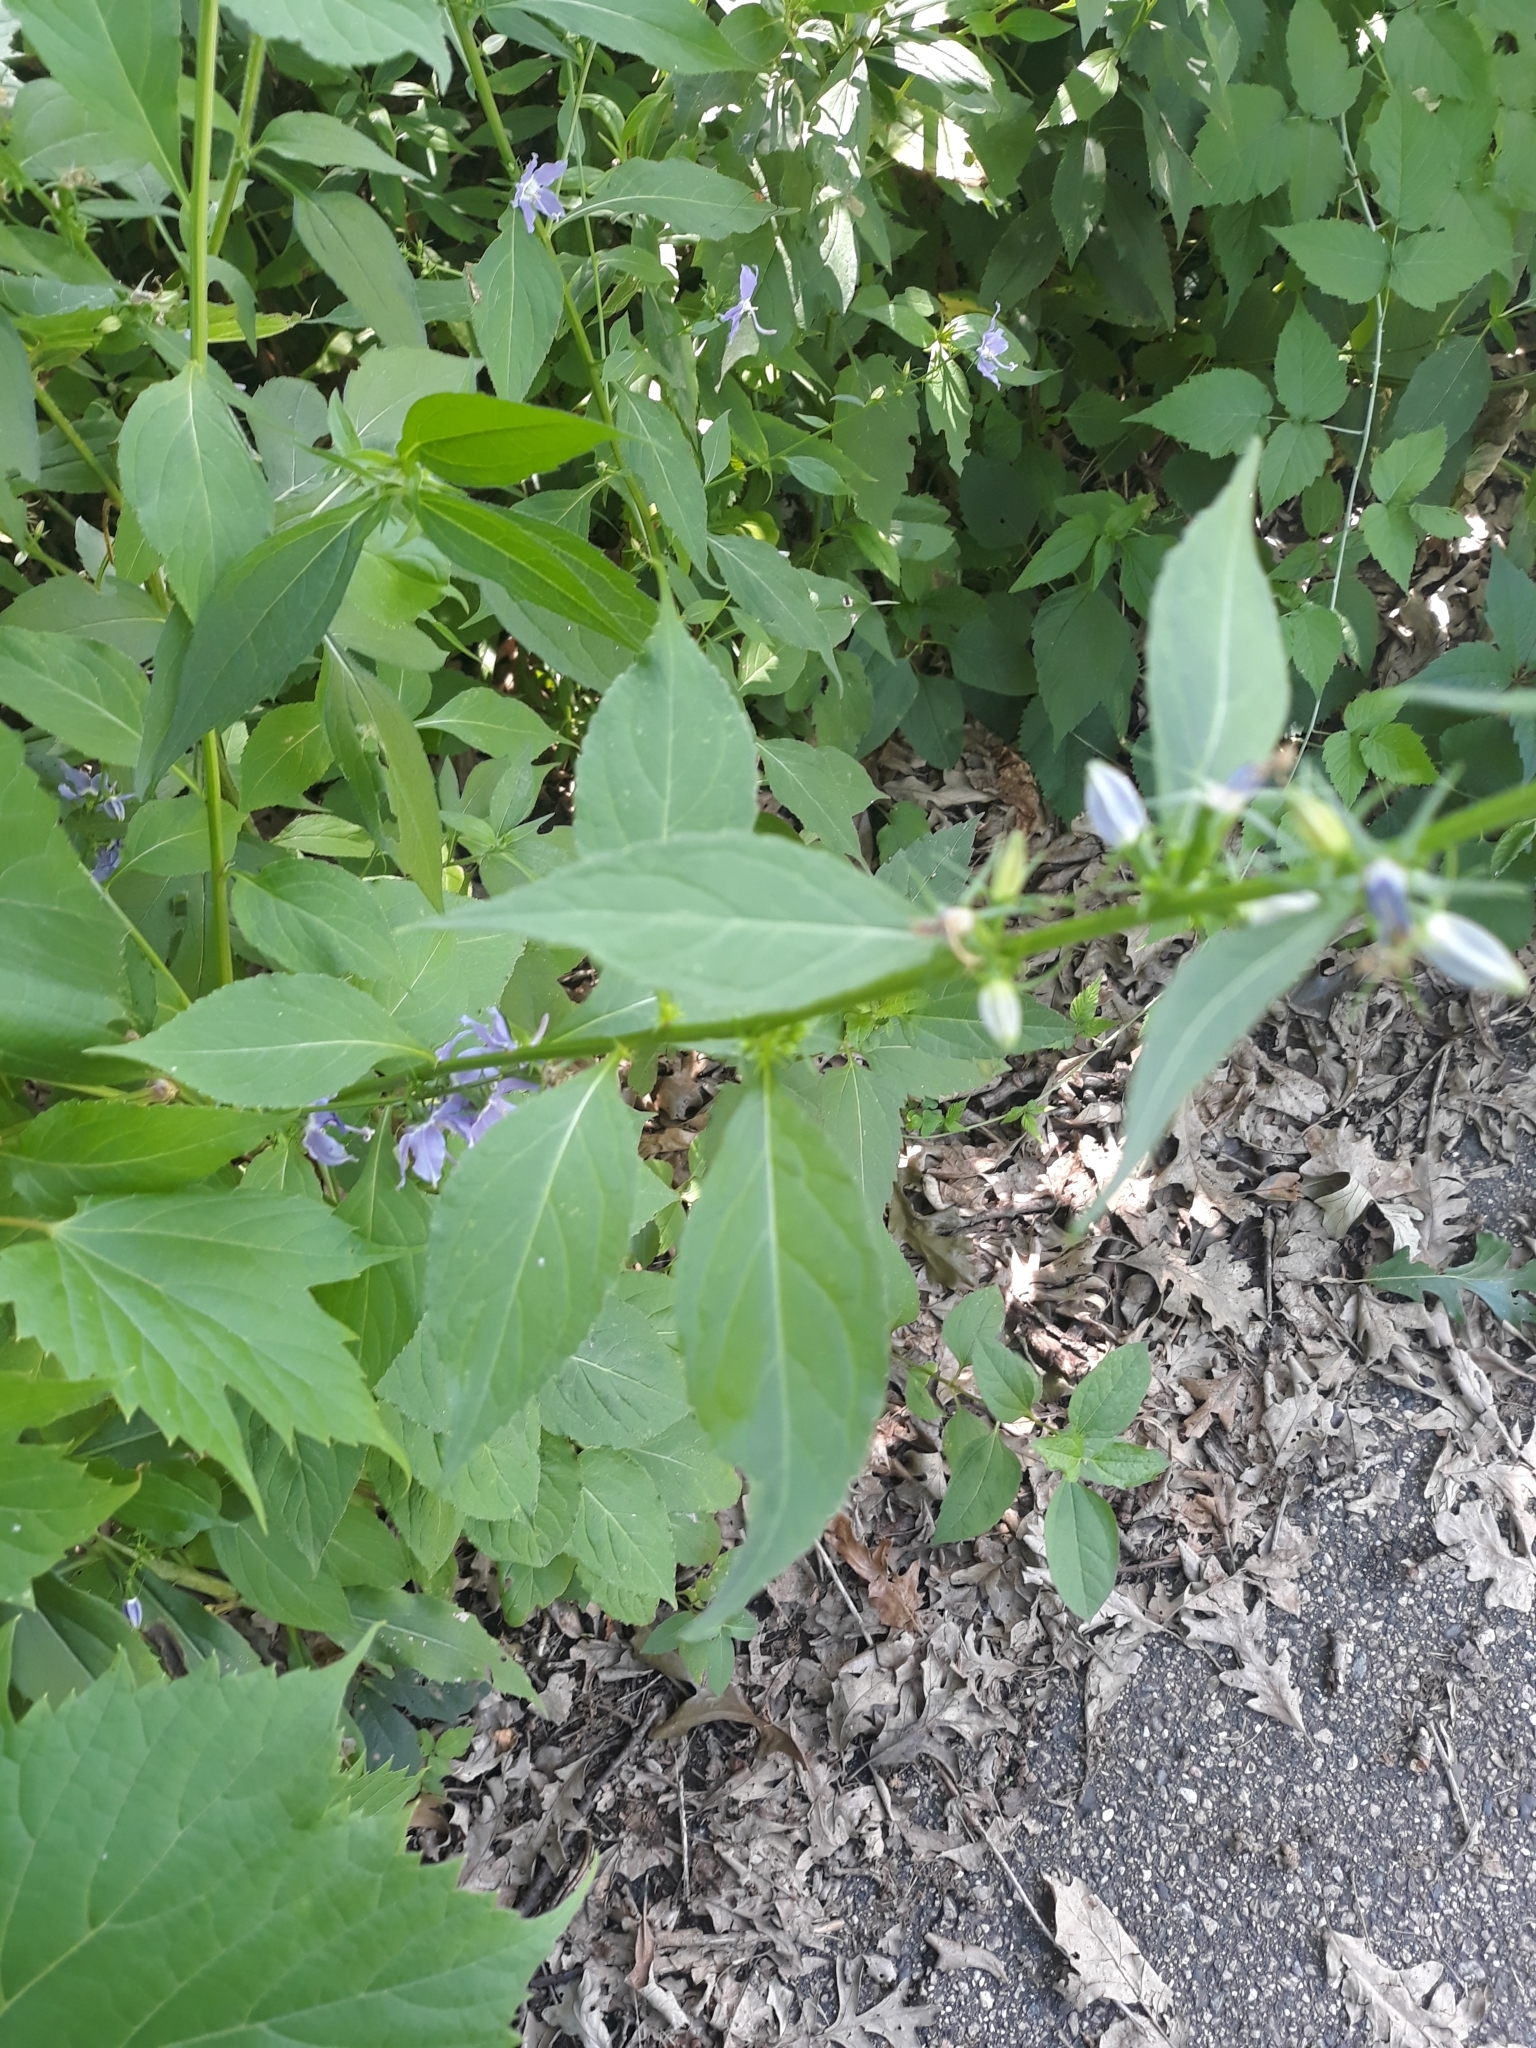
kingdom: Plantae
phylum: Tracheophyta
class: Magnoliopsida
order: Asterales
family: Campanulaceae
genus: Campanulastrum
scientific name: Campanulastrum americanum
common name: American bellflower
